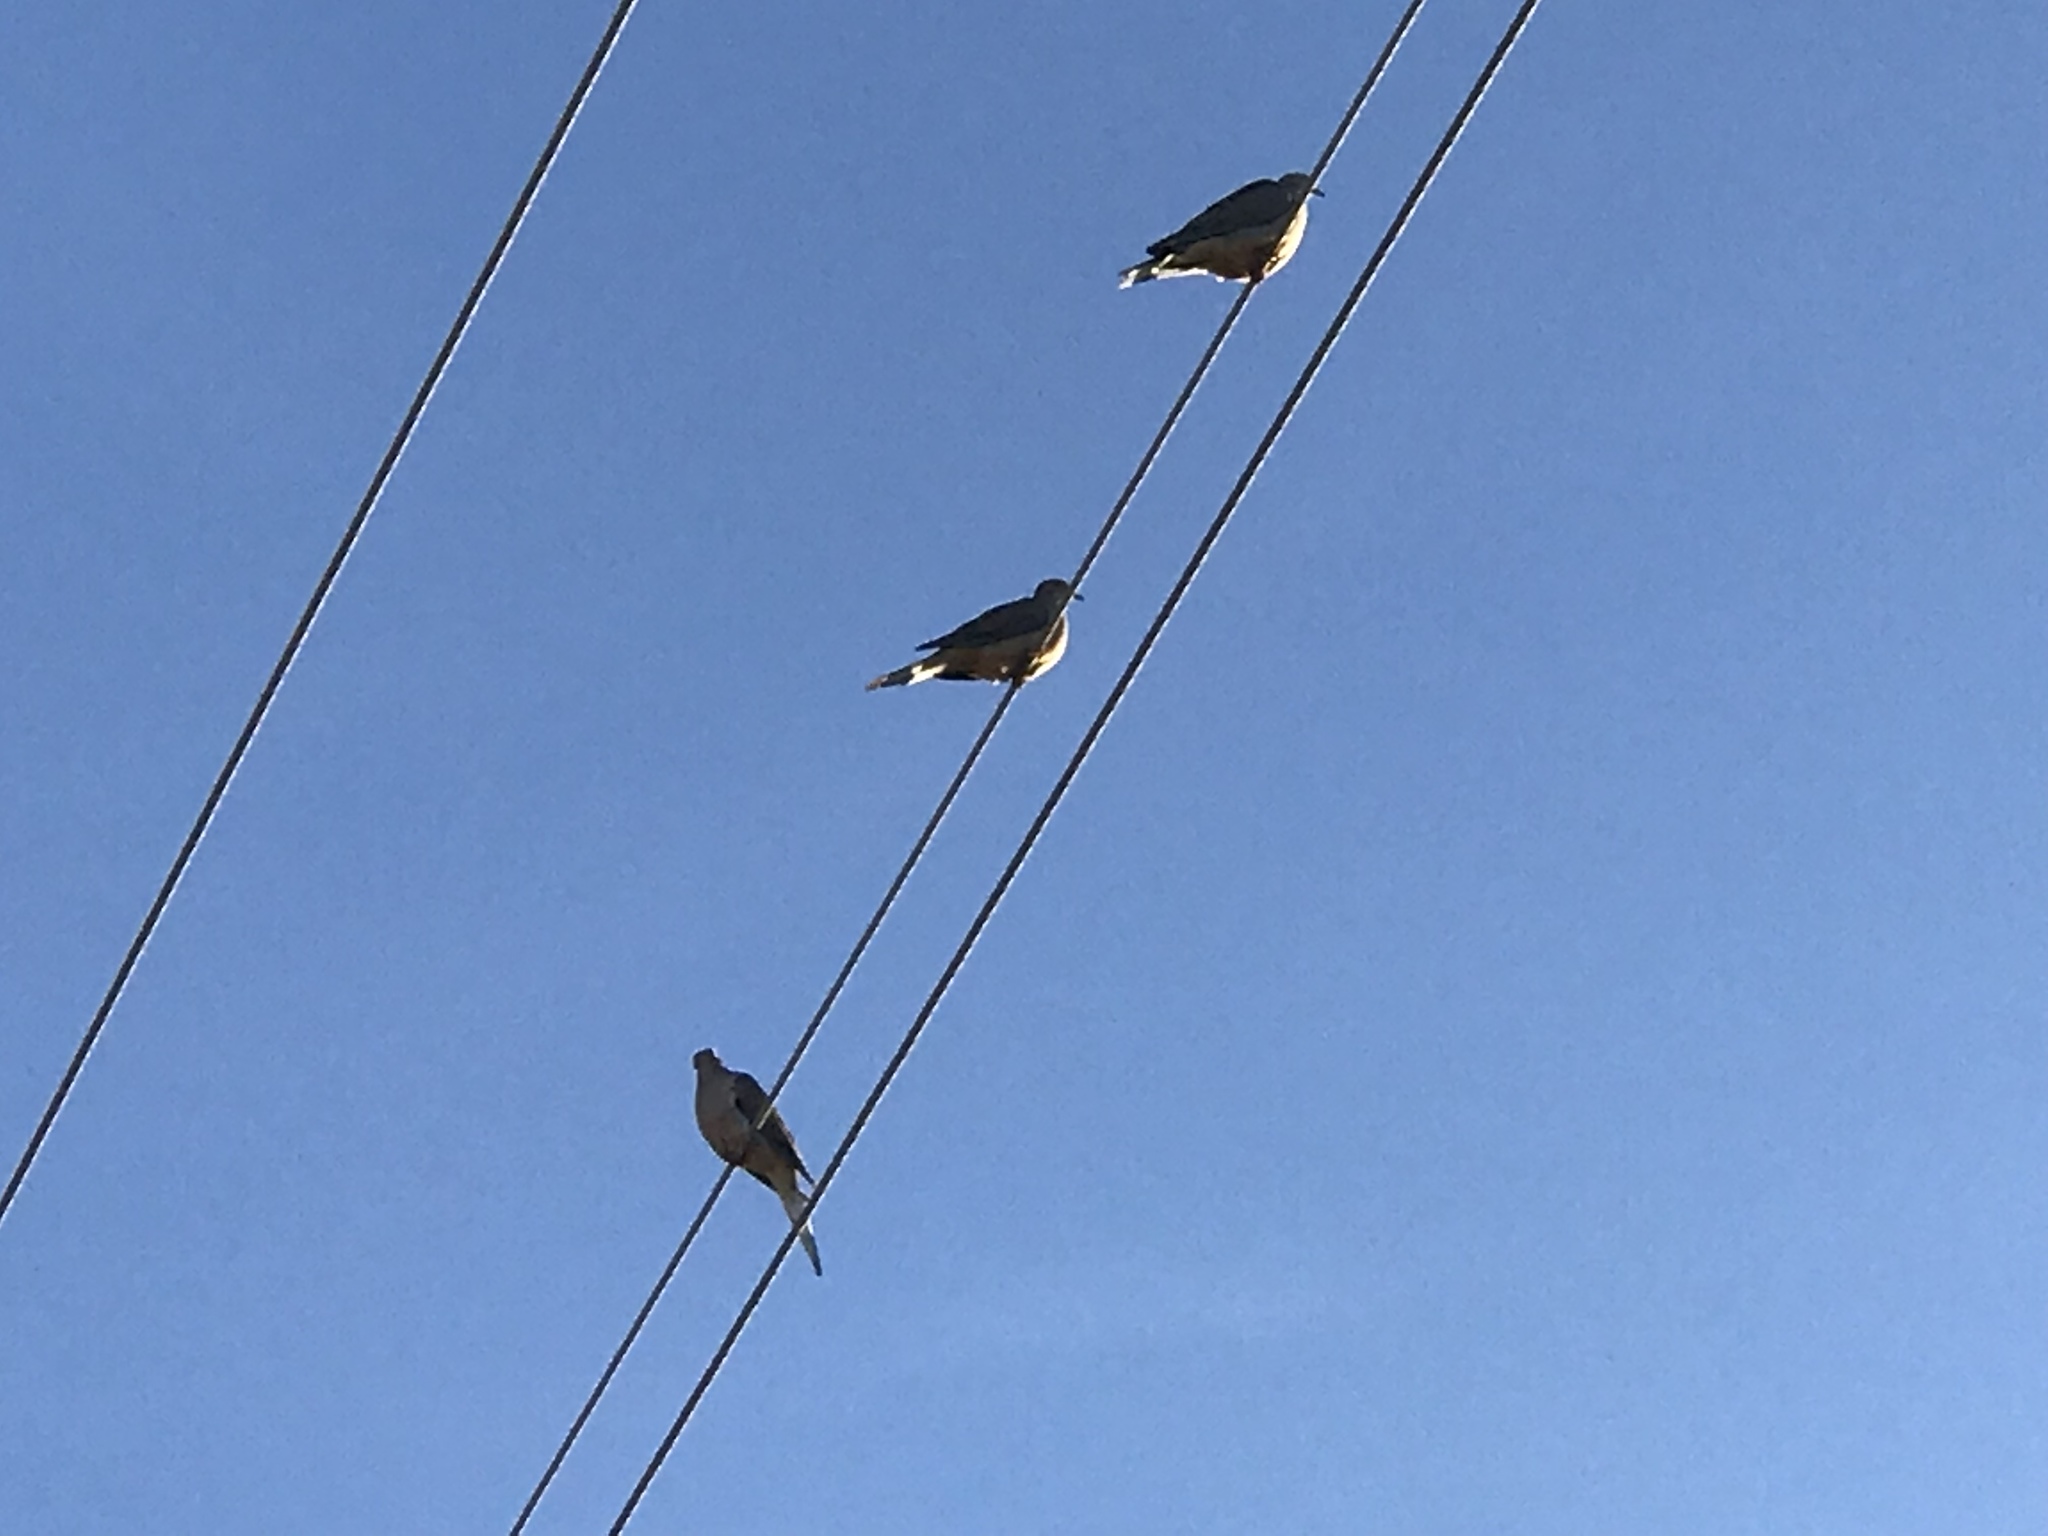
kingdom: Animalia
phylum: Chordata
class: Aves
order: Columbiformes
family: Columbidae
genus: Zenaida
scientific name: Zenaida macroura
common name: Mourning dove
